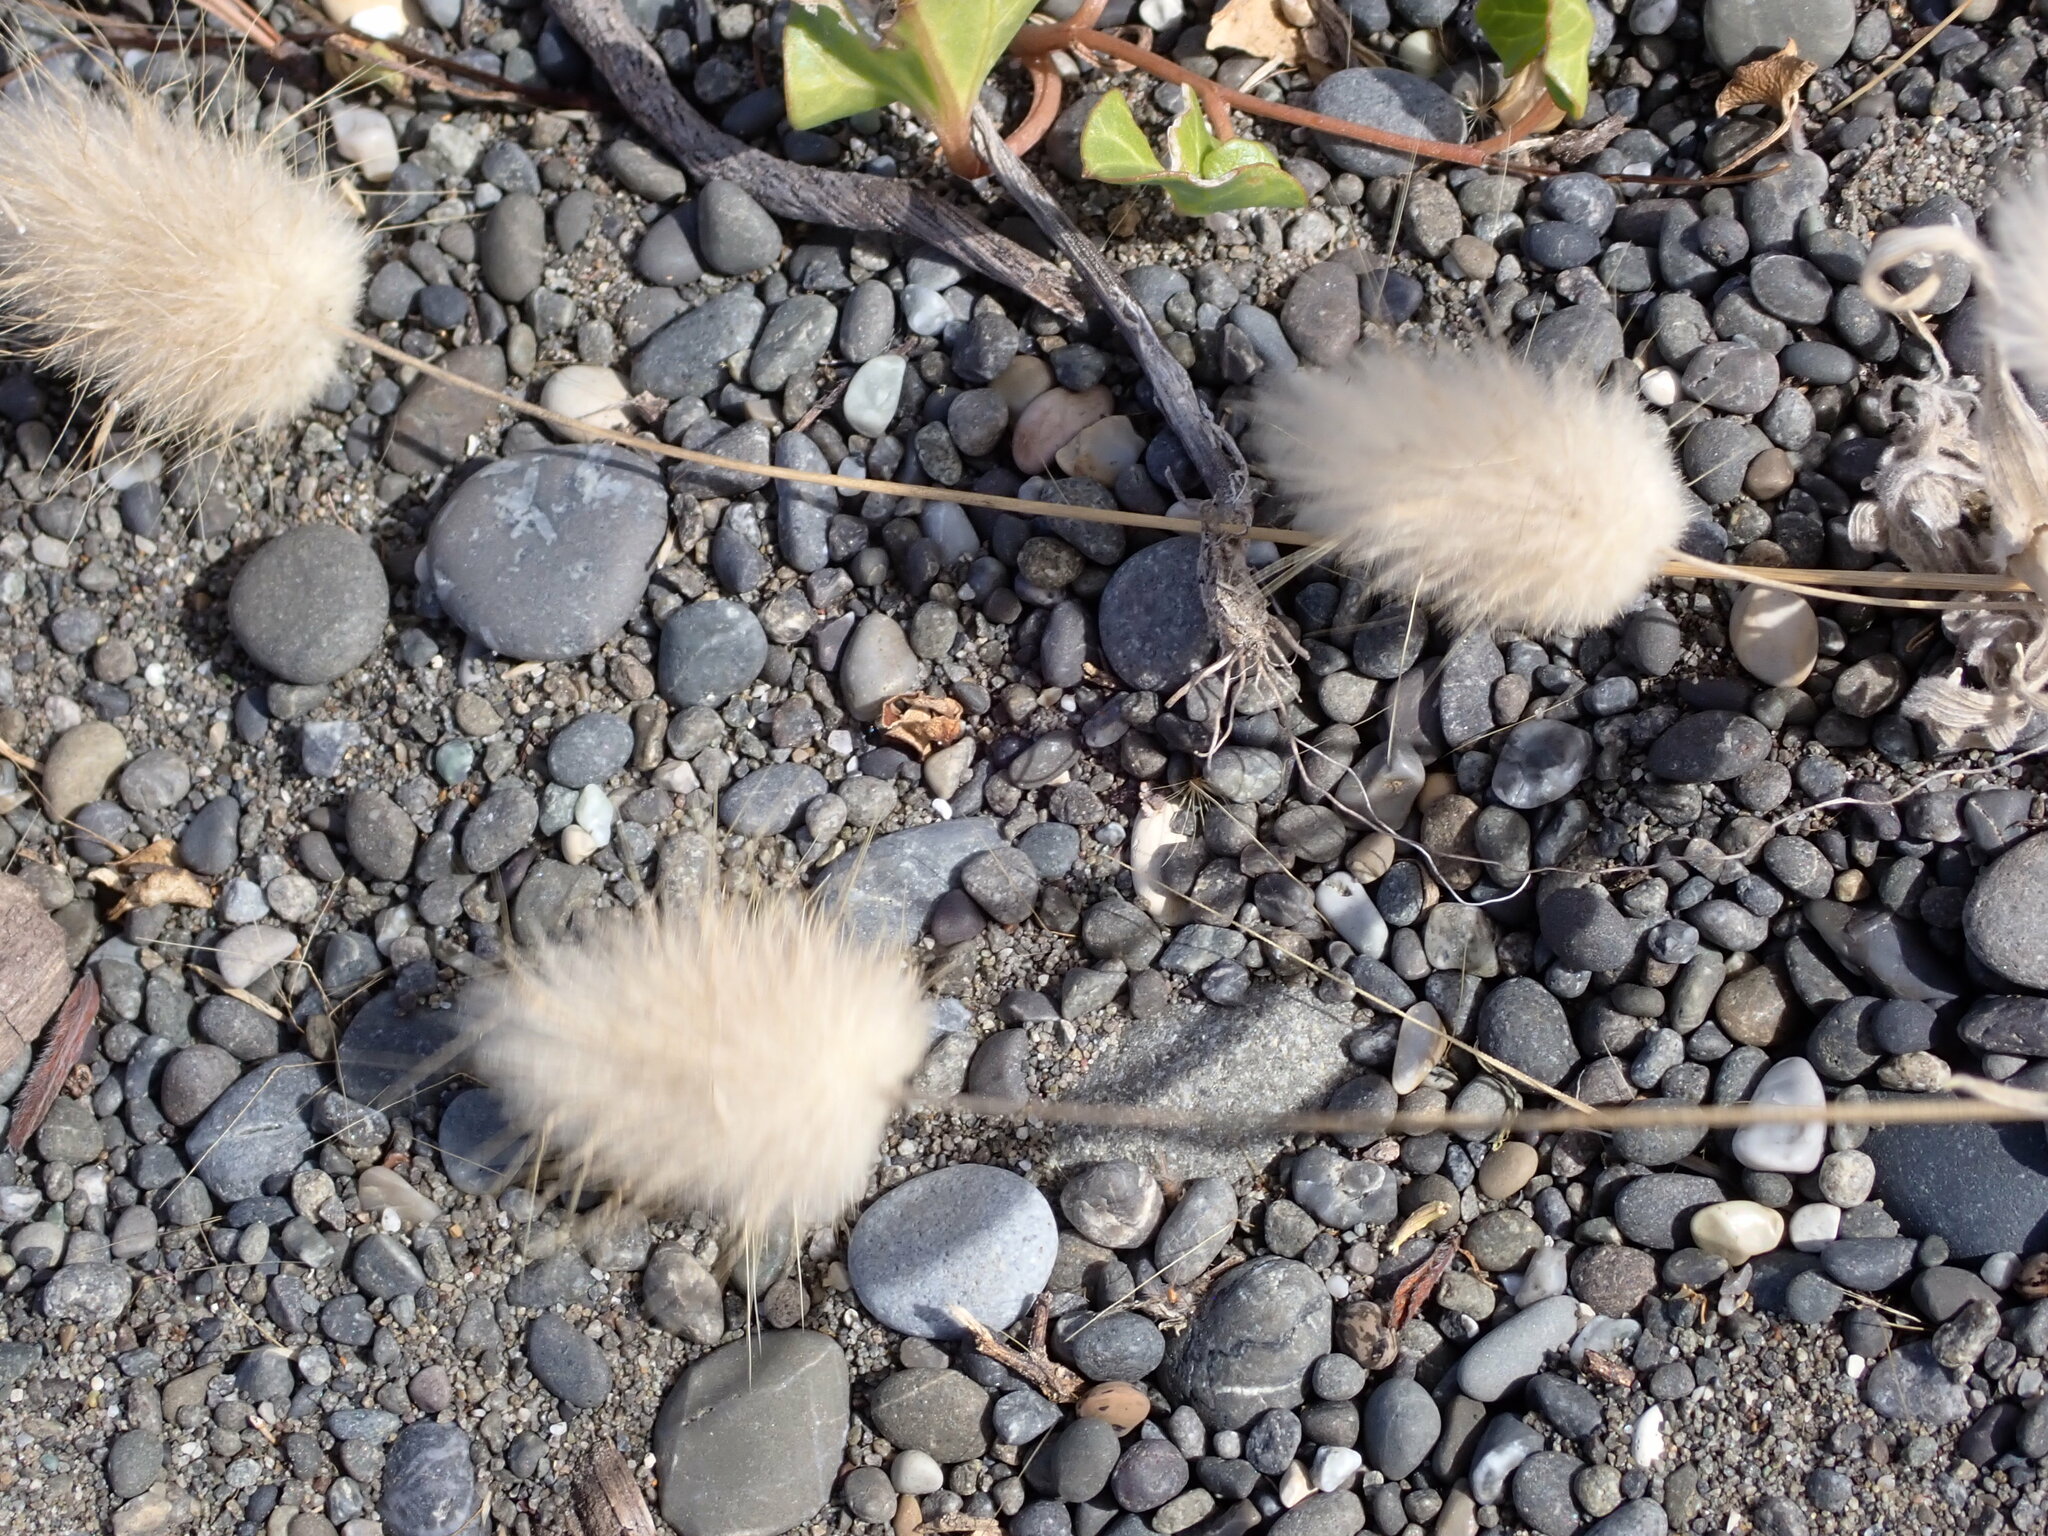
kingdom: Plantae
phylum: Tracheophyta
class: Liliopsida
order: Poales
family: Poaceae
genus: Lagurus
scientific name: Lagurus ovatus
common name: Hare's-tail
